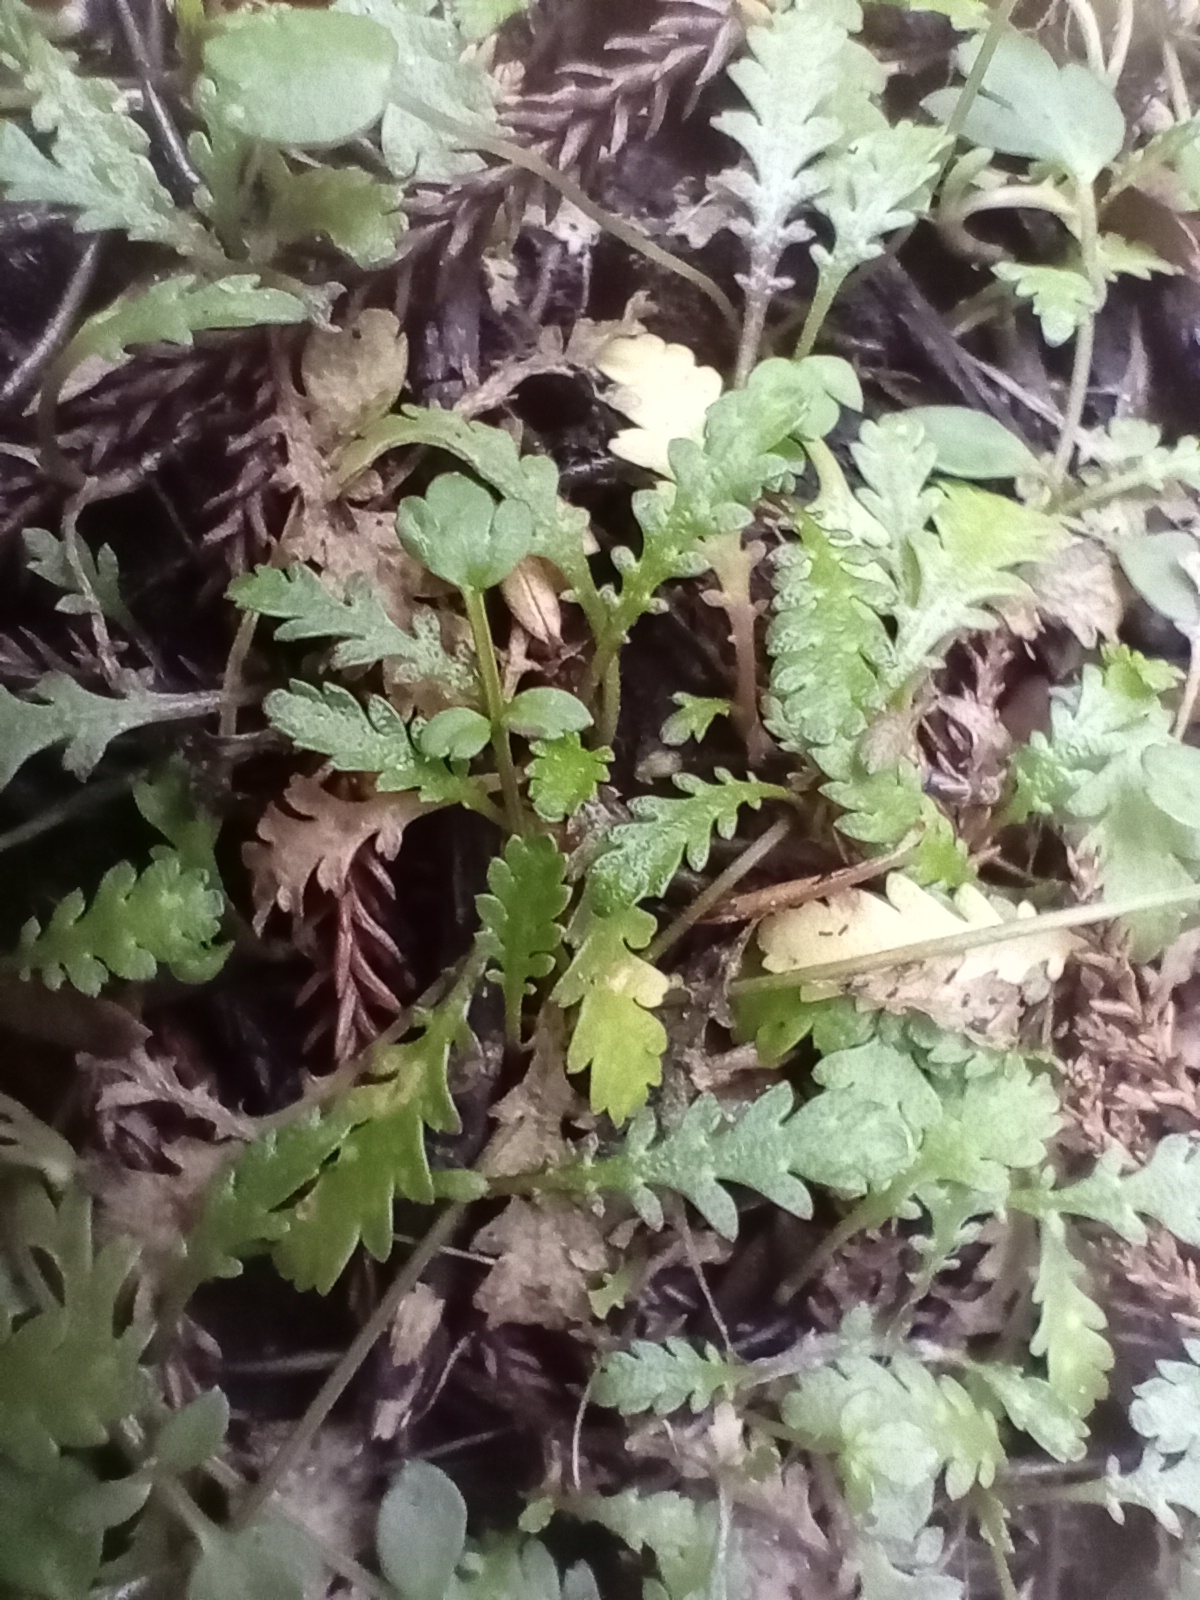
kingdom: Plantae
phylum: Tracheophyta
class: Magnoliopsida
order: Asterales
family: Asteraceae
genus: Leptinella
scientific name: Leptinella dioica
